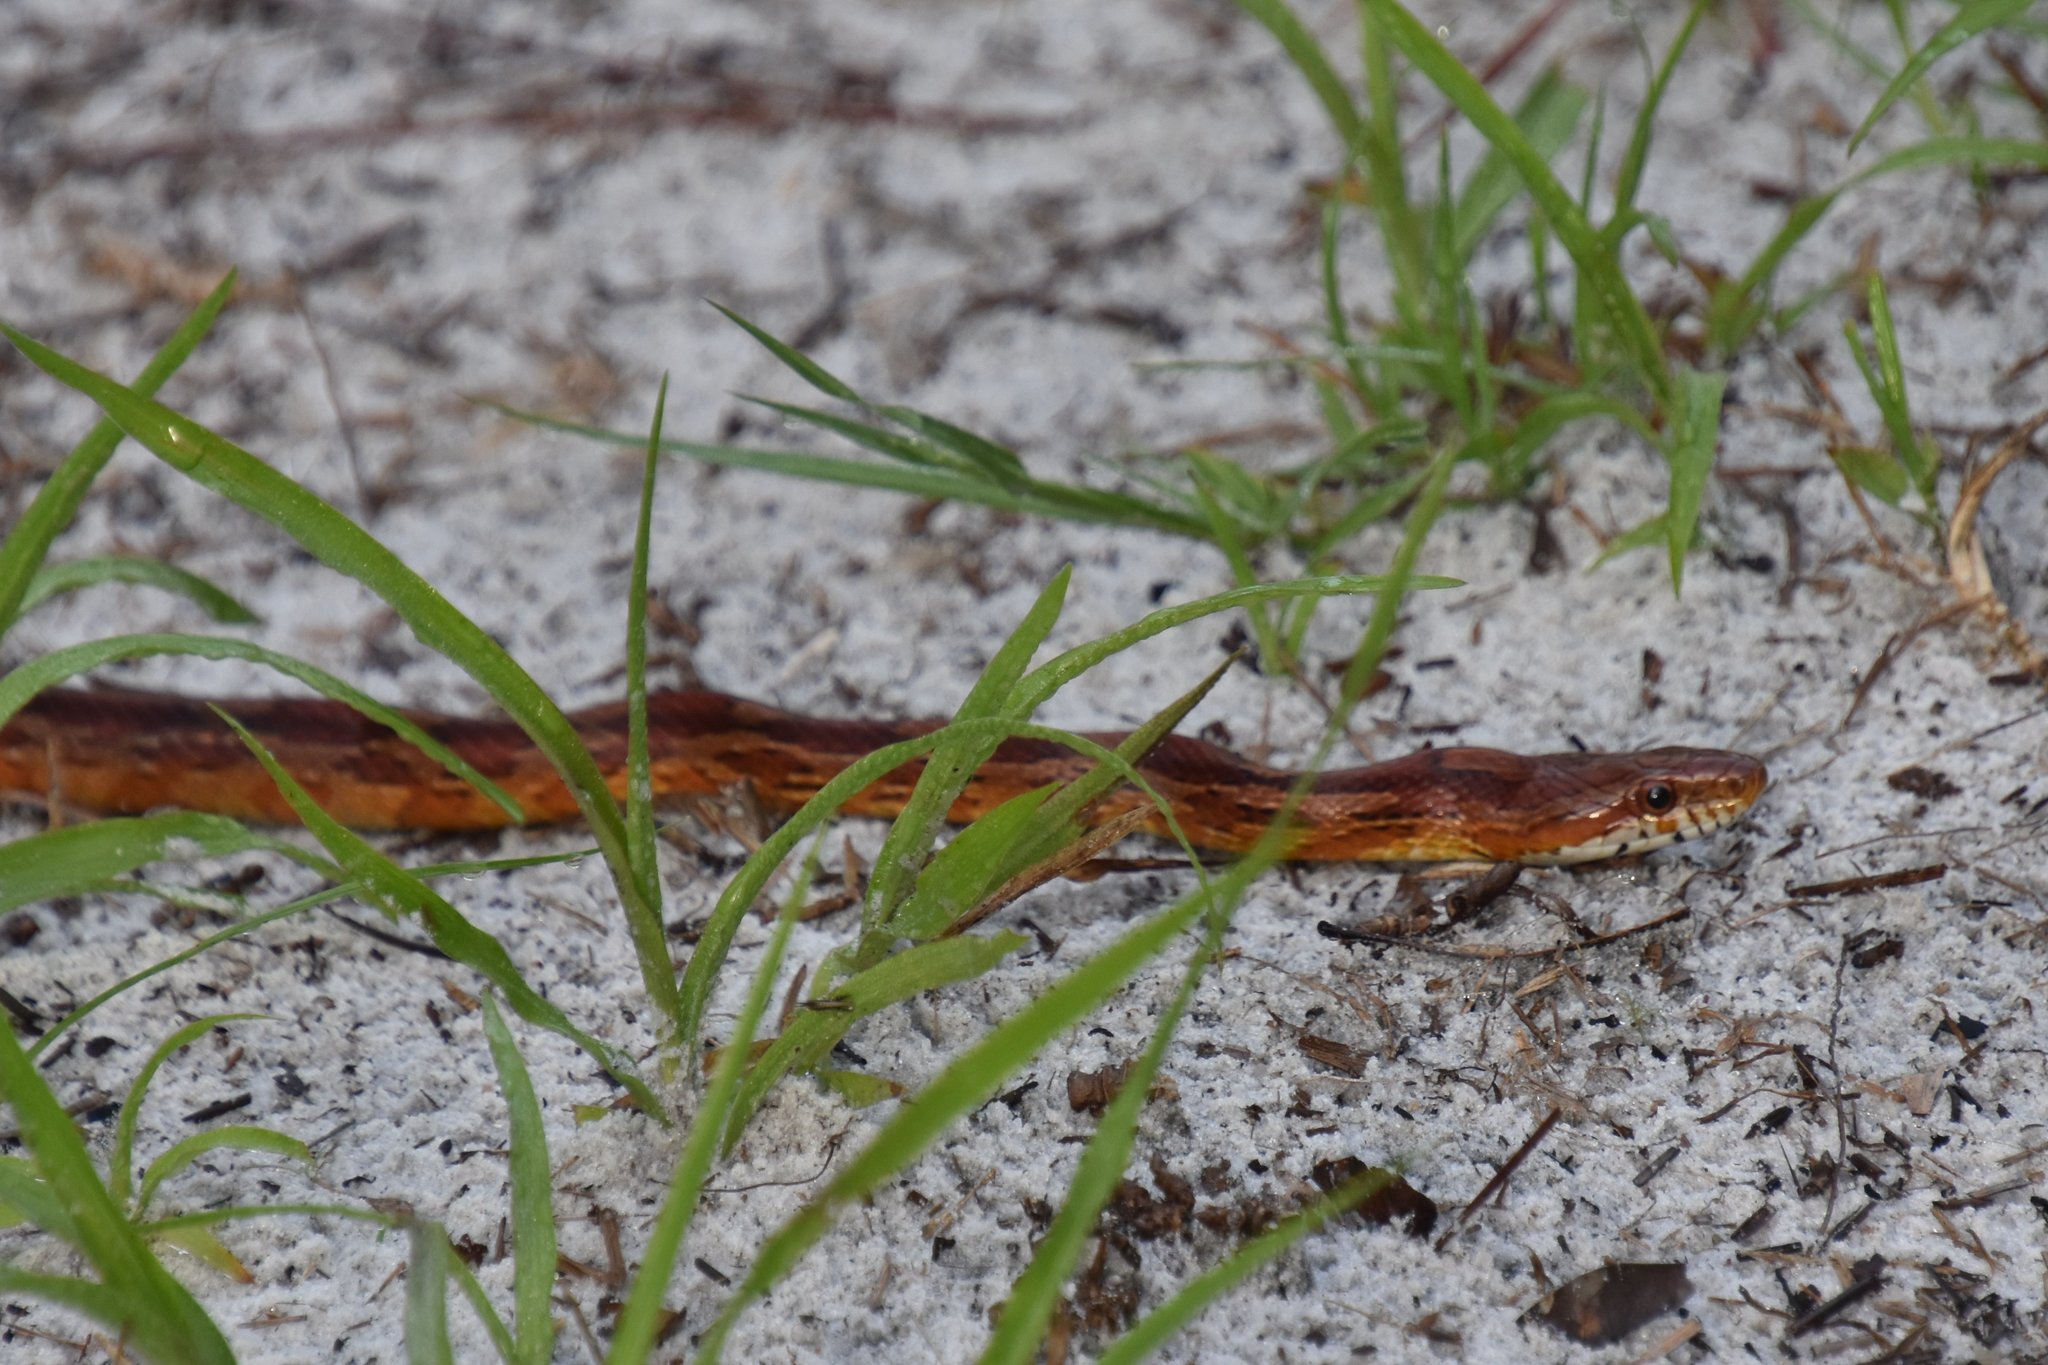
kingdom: Animalia
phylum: Chordata
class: Squamata
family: Colubridae
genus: Pantherophis
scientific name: Pantherophis guttatus
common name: Red cornsnake
